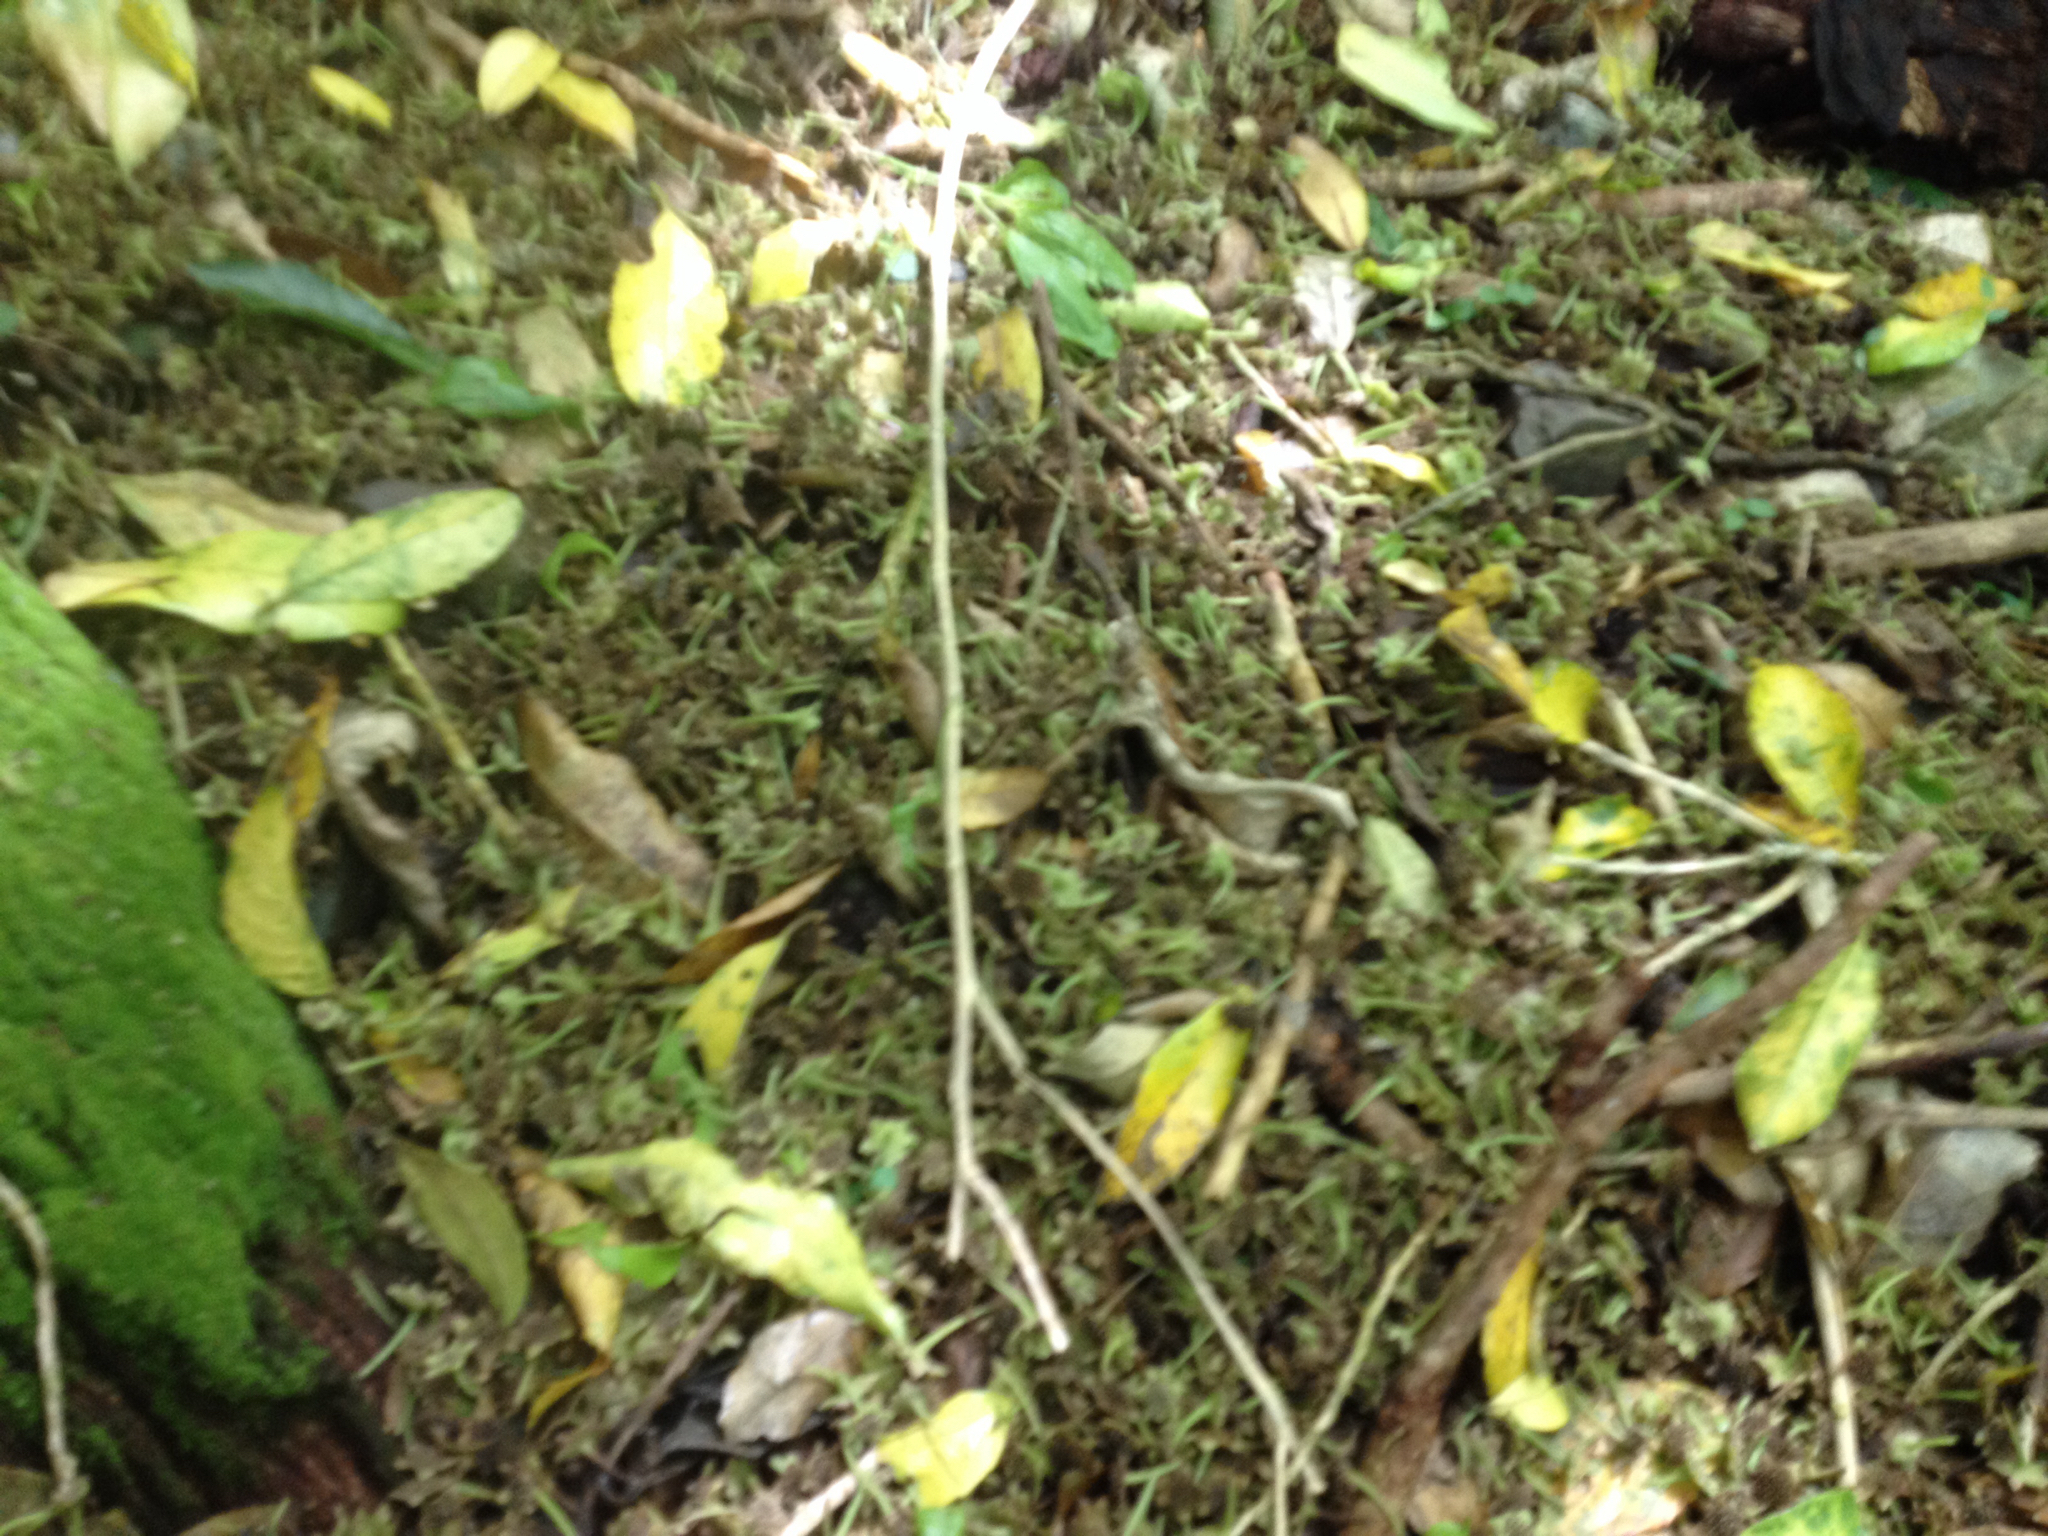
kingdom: Plantae
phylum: Tracheophyta
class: Magnoliopsida
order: Laurales
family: Monimiaceae
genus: Hedycarya
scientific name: Hedycarya arborea
